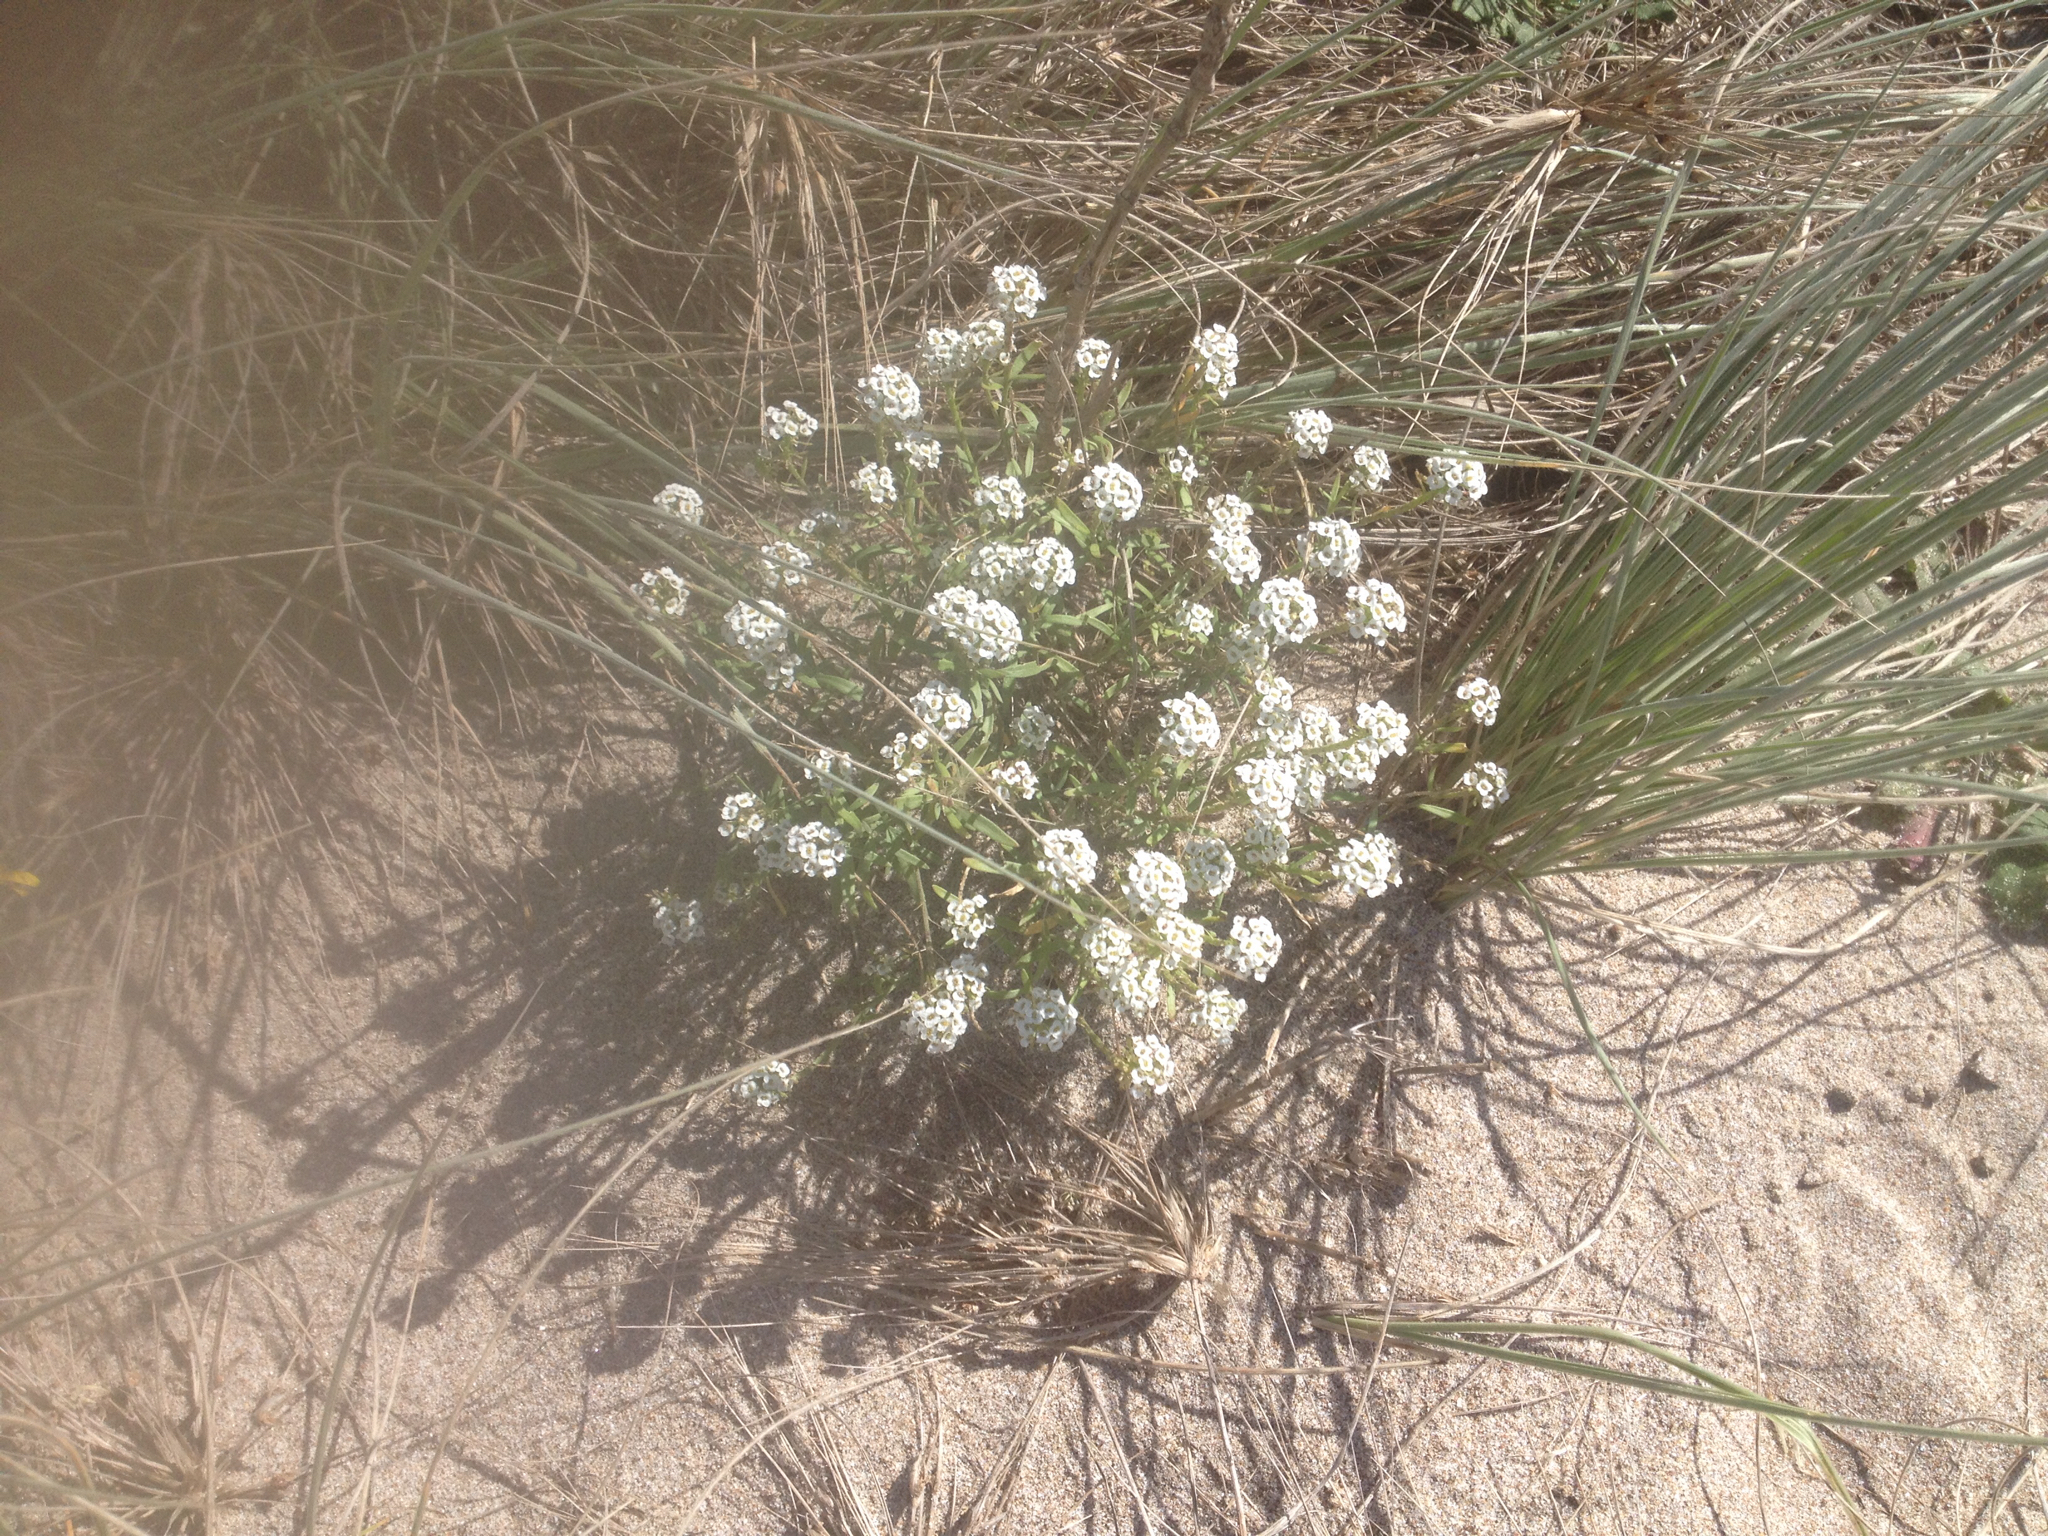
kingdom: Plantae
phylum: Tracheophyta
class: Magnoliopsida
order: Brassicales
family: Brassicaceae
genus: Lobularia
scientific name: Lobularia maritima
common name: Sweet alison
